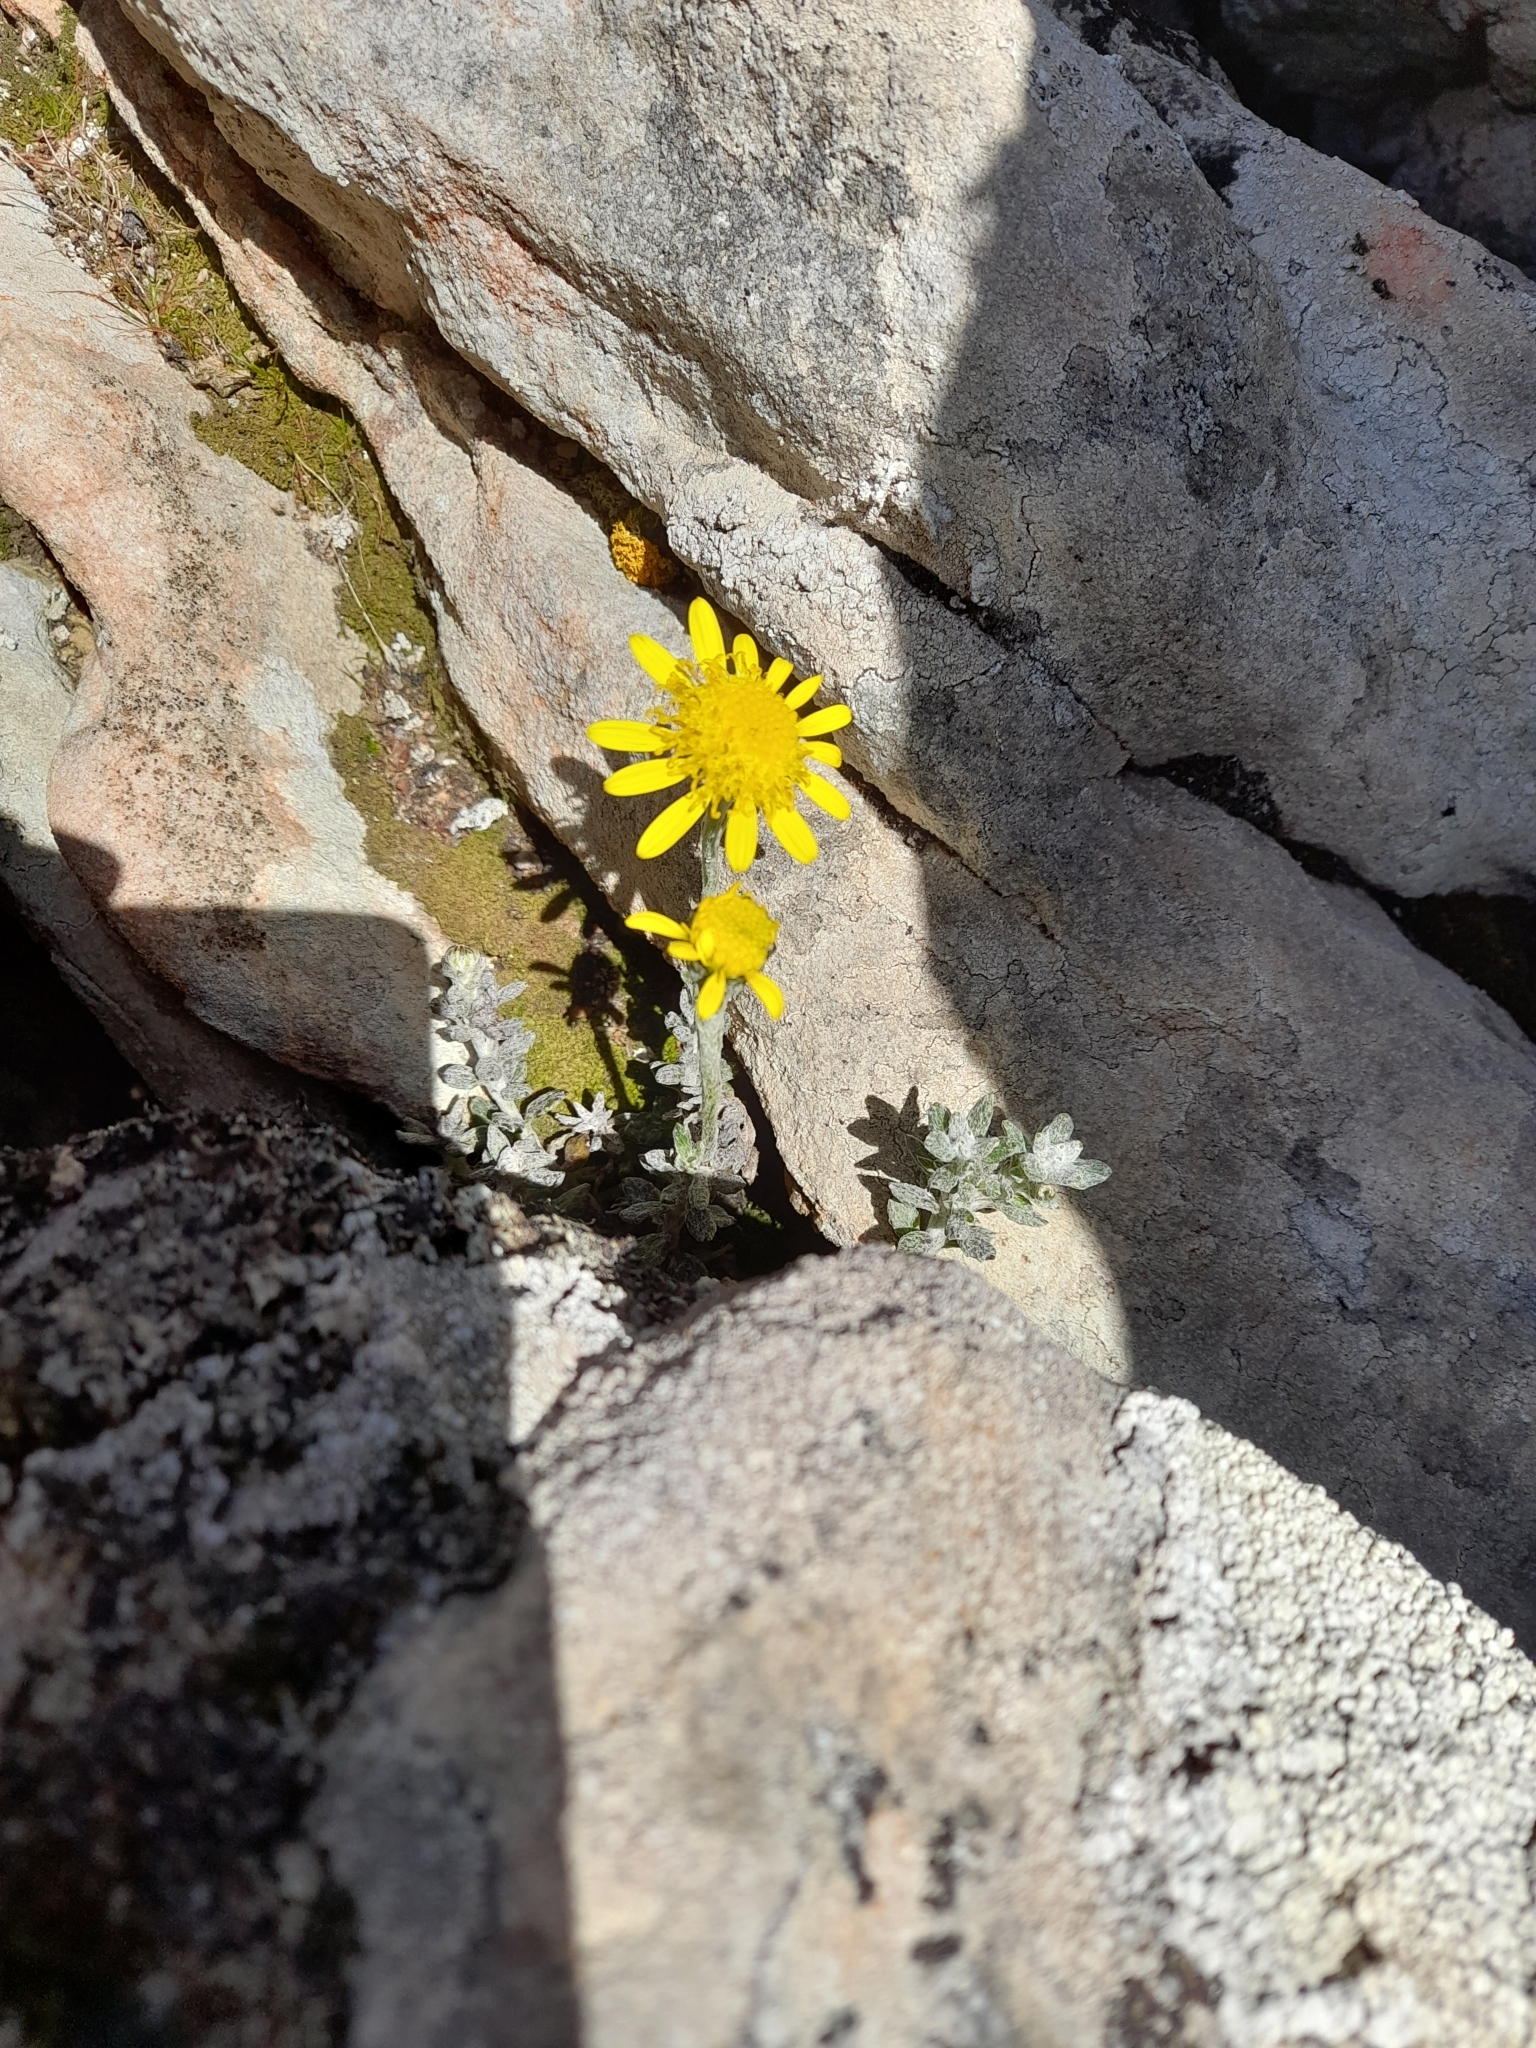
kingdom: Plantae
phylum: Tracheophyta
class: Magnoliopsida
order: Asterales
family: Asteraceae
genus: Senecio
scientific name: Senecio falklandicus
